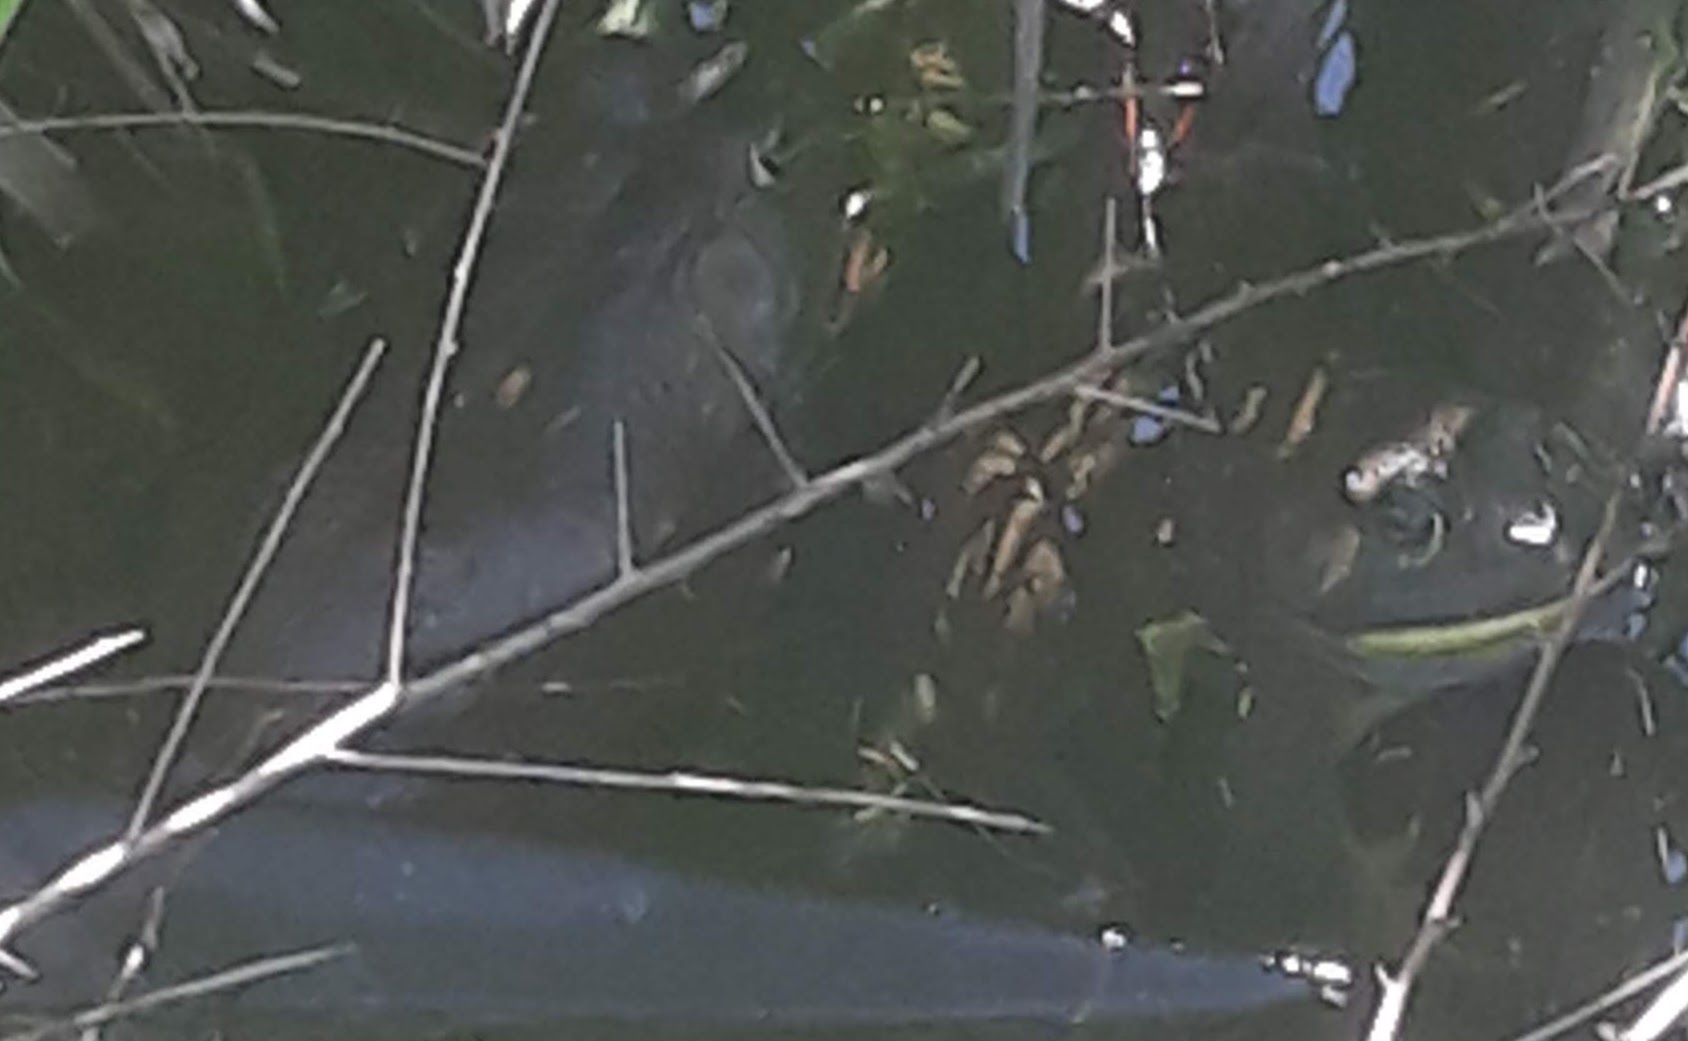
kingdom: Animalia
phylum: Chordata
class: Amphibia
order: Anura
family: Ranidae
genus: Lithobates
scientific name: Lithobates clamitans
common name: Green frog
